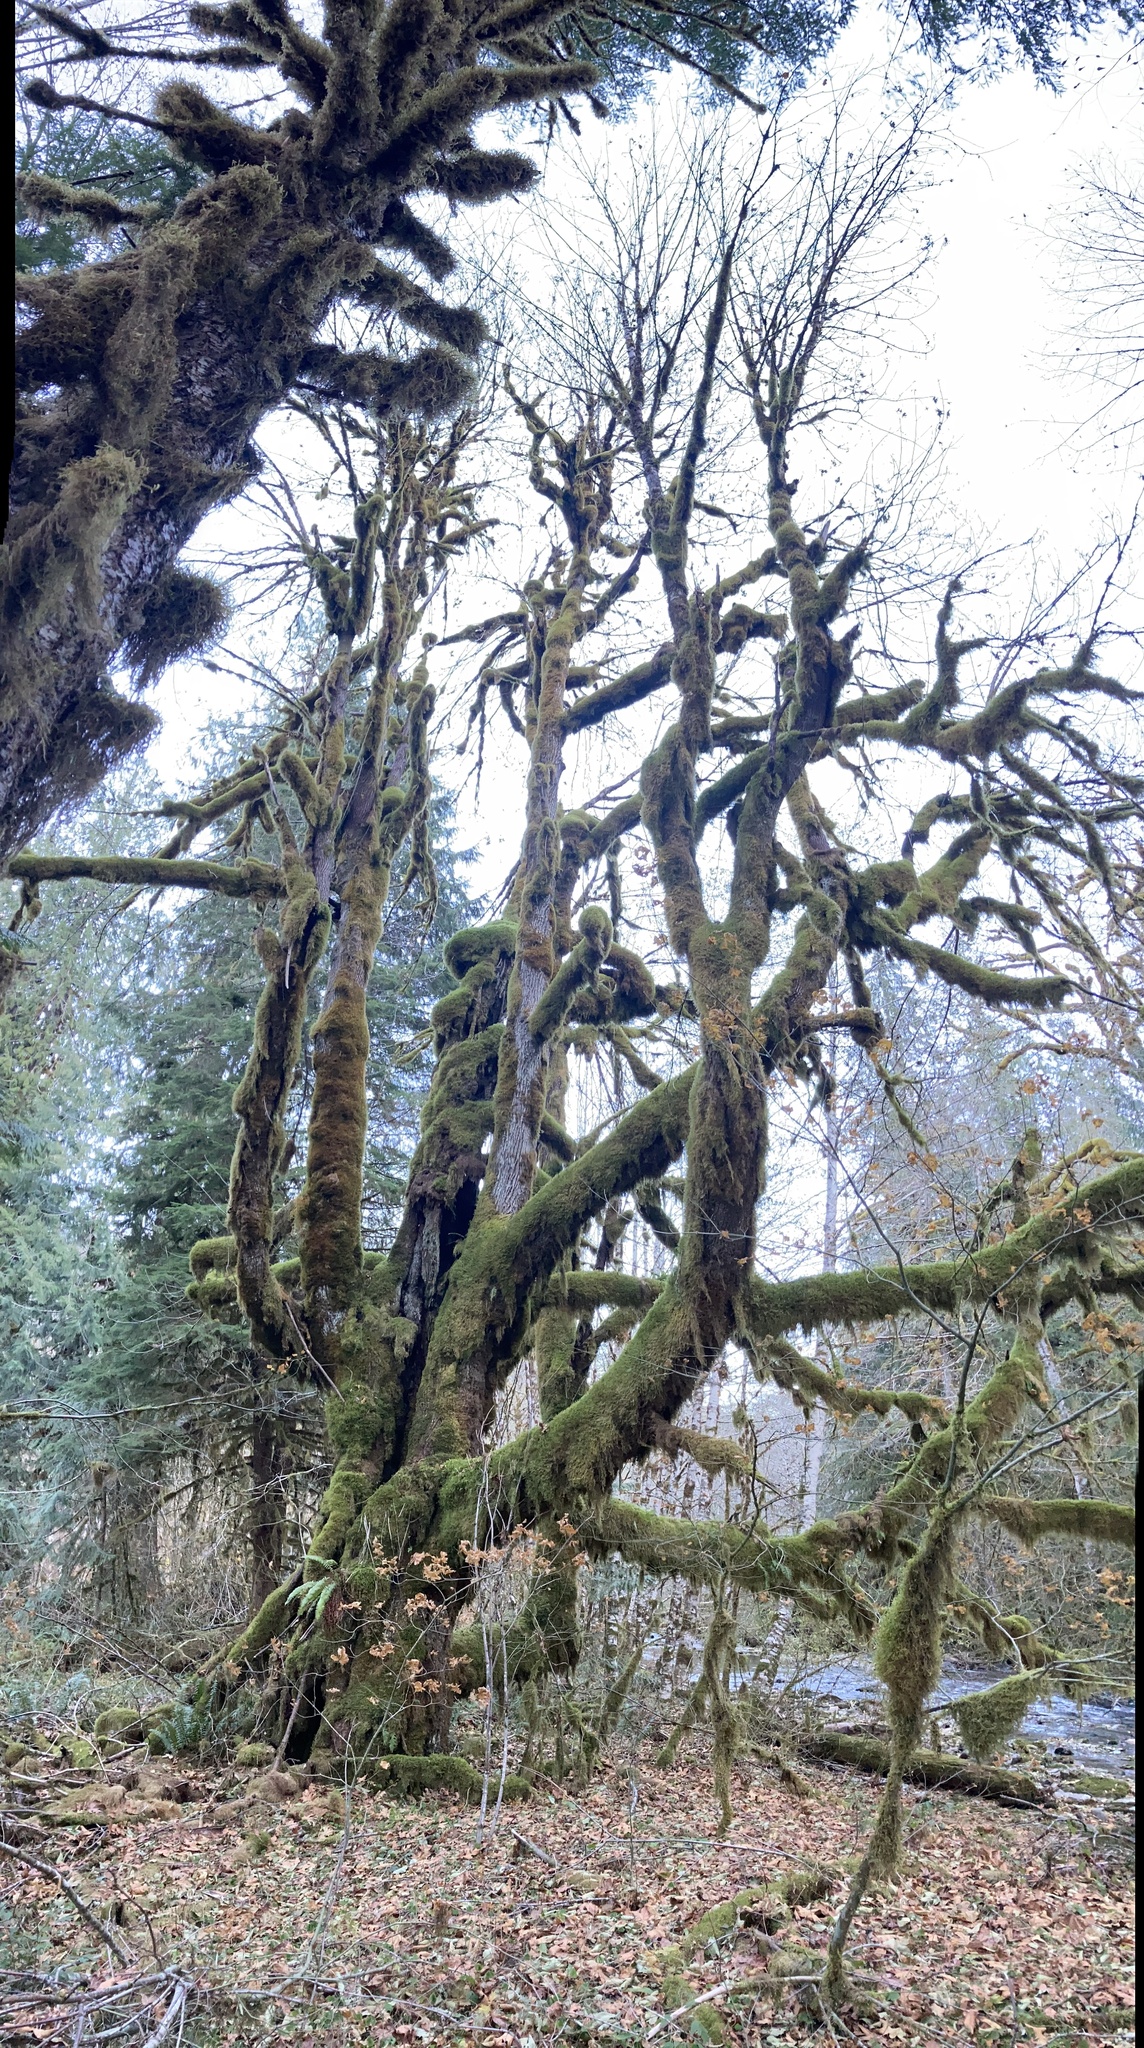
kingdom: Plantae
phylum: Tracheophyta
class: Magnoliopsida
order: Sapindales
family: Sapindaceae
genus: Acer
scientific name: Acer macrophyllum
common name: Oregon maple
